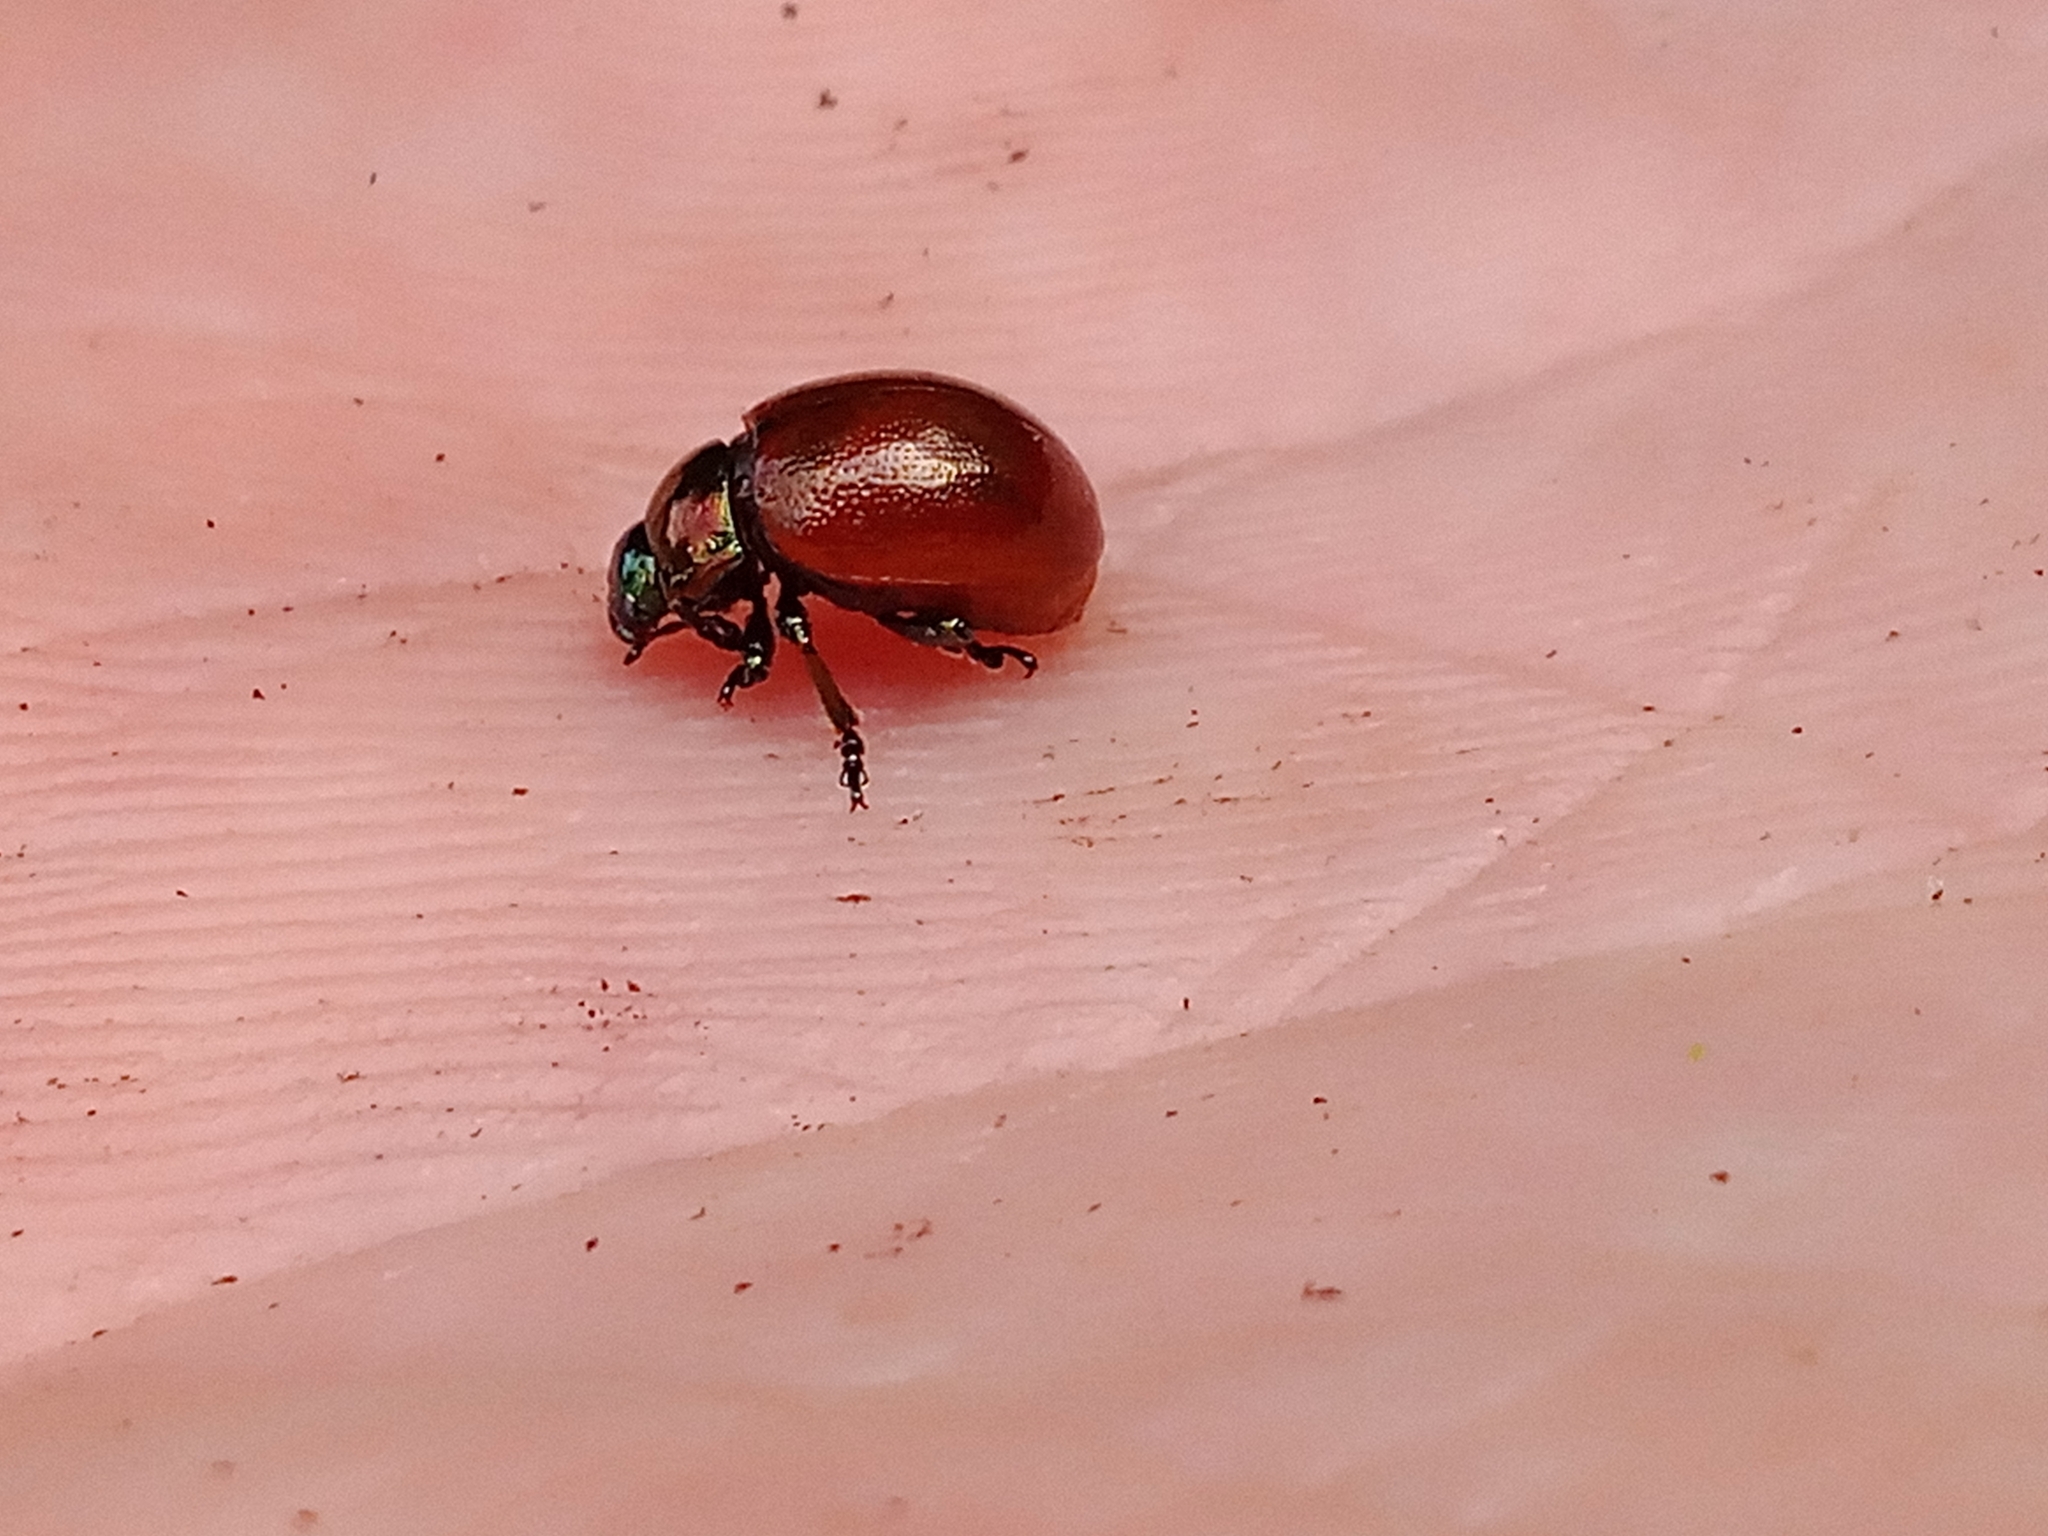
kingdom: Animalia
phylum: Arthropoda
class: Insecta
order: Coleoptera
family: Chrysomelidae
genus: Chrysomela
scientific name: Chrysomela polita
